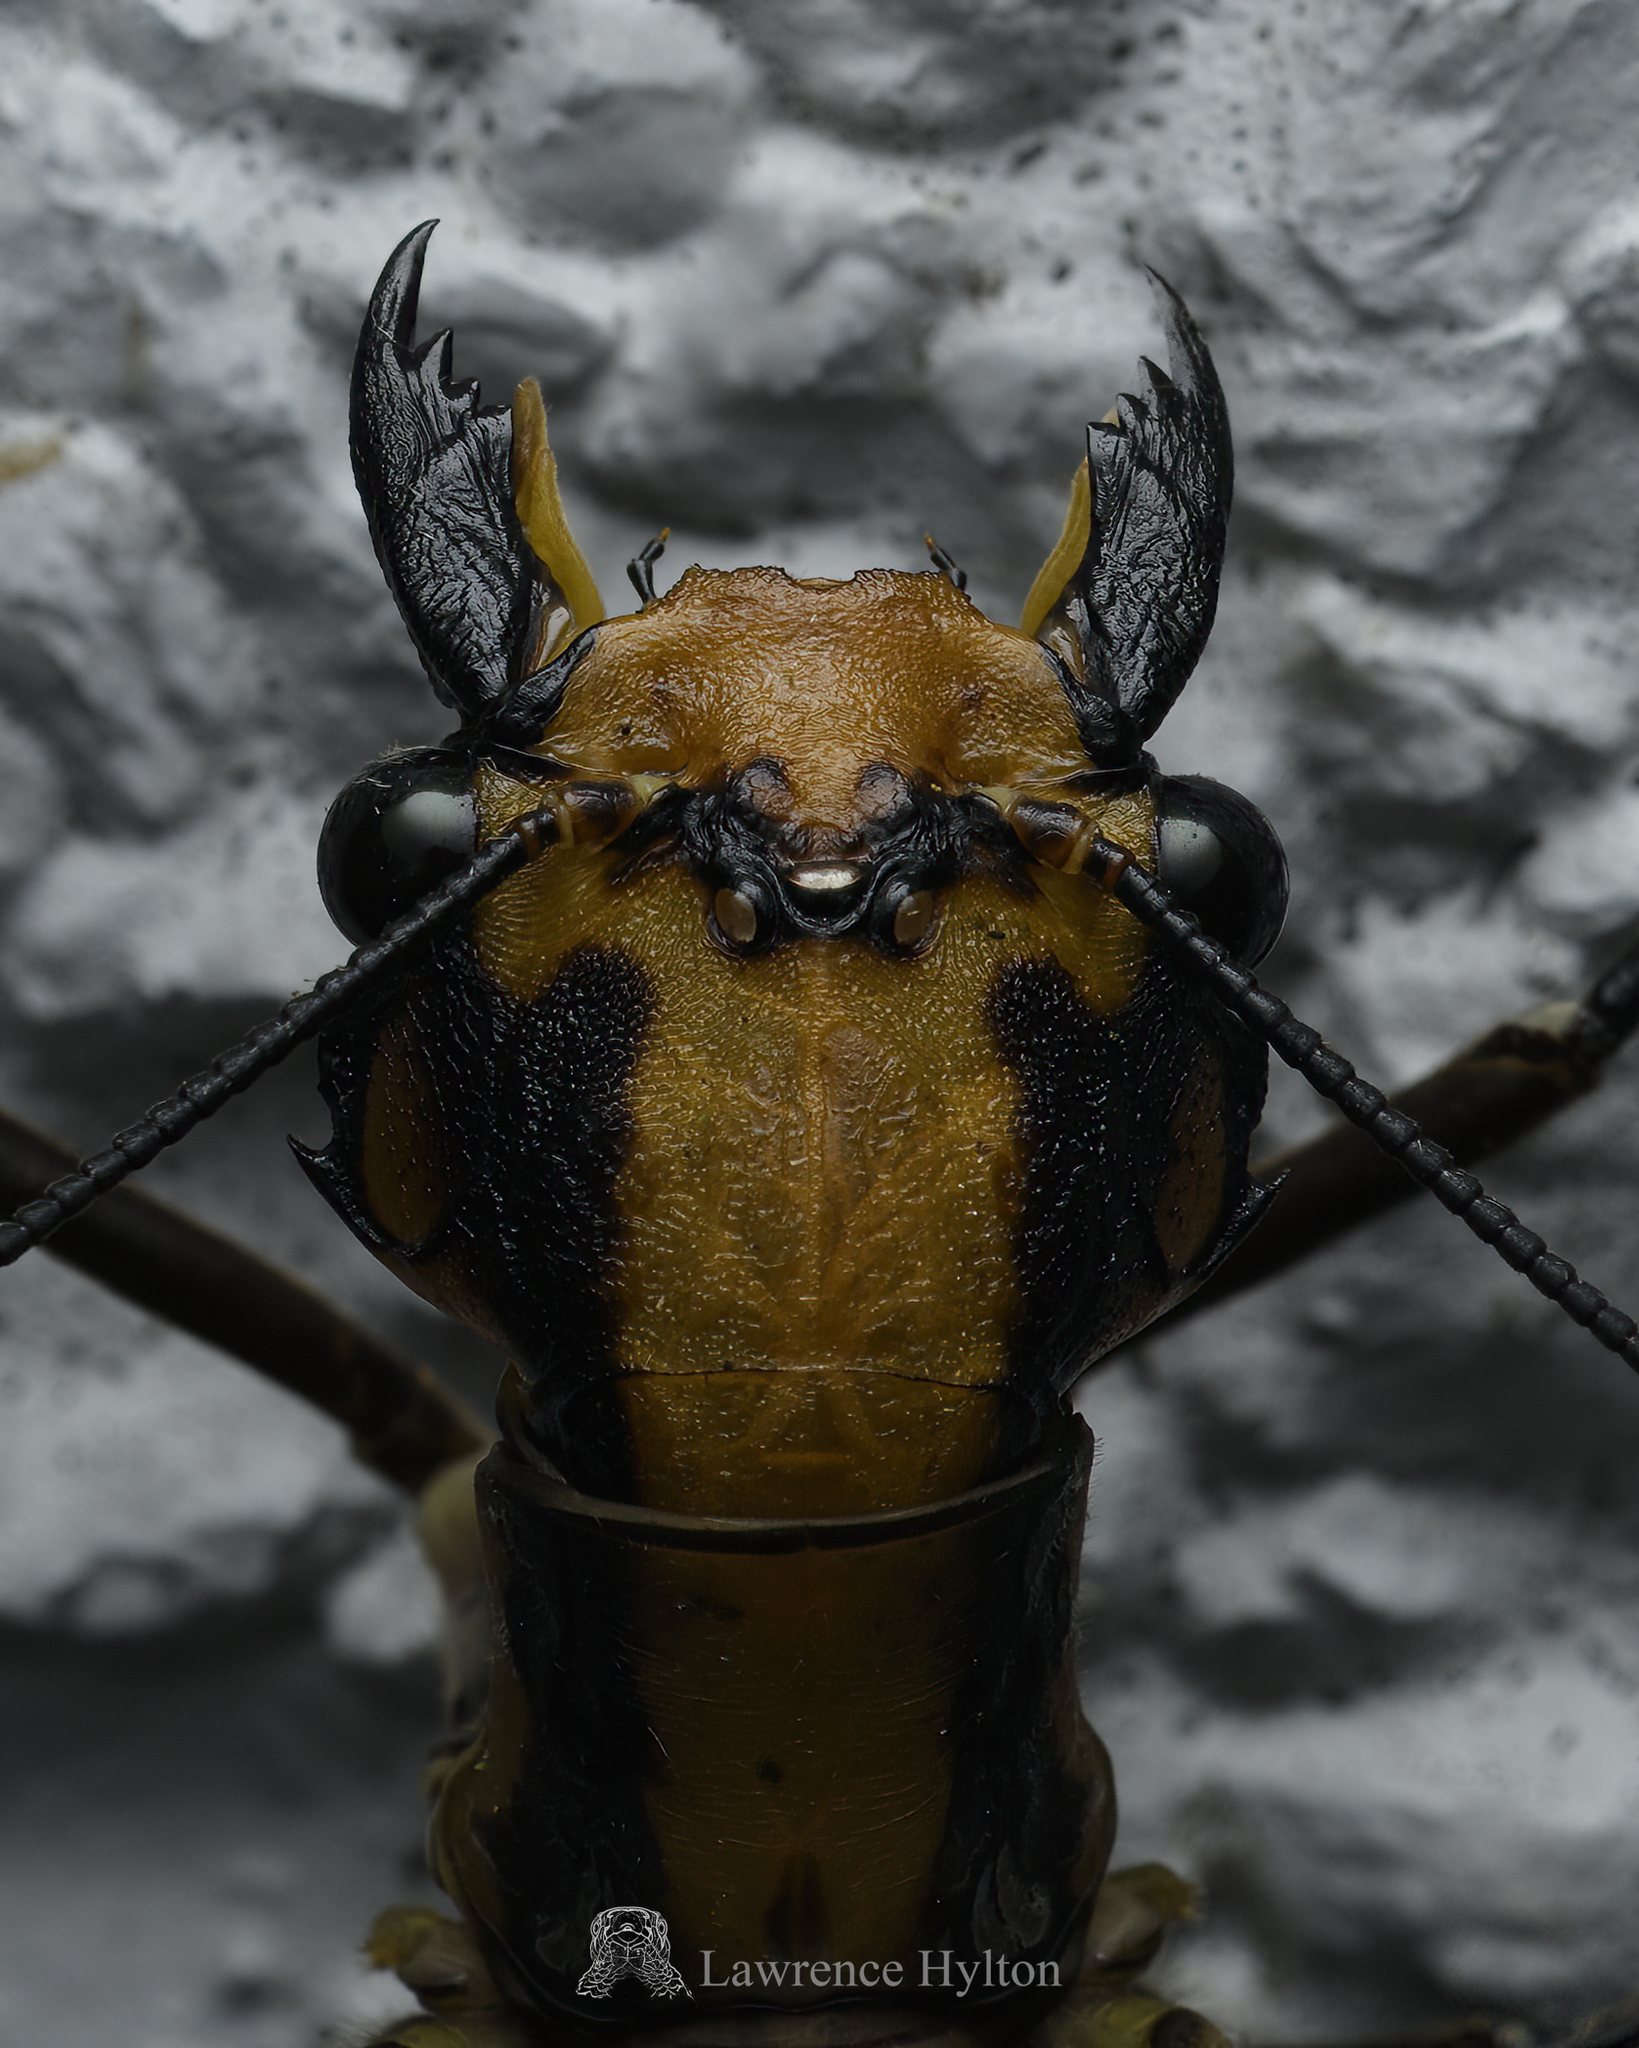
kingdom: Animalia
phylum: Arthropoda
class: Insecta
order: Megaloptera
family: Corydalidae
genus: Neoneuromus
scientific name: Neoneuromus
